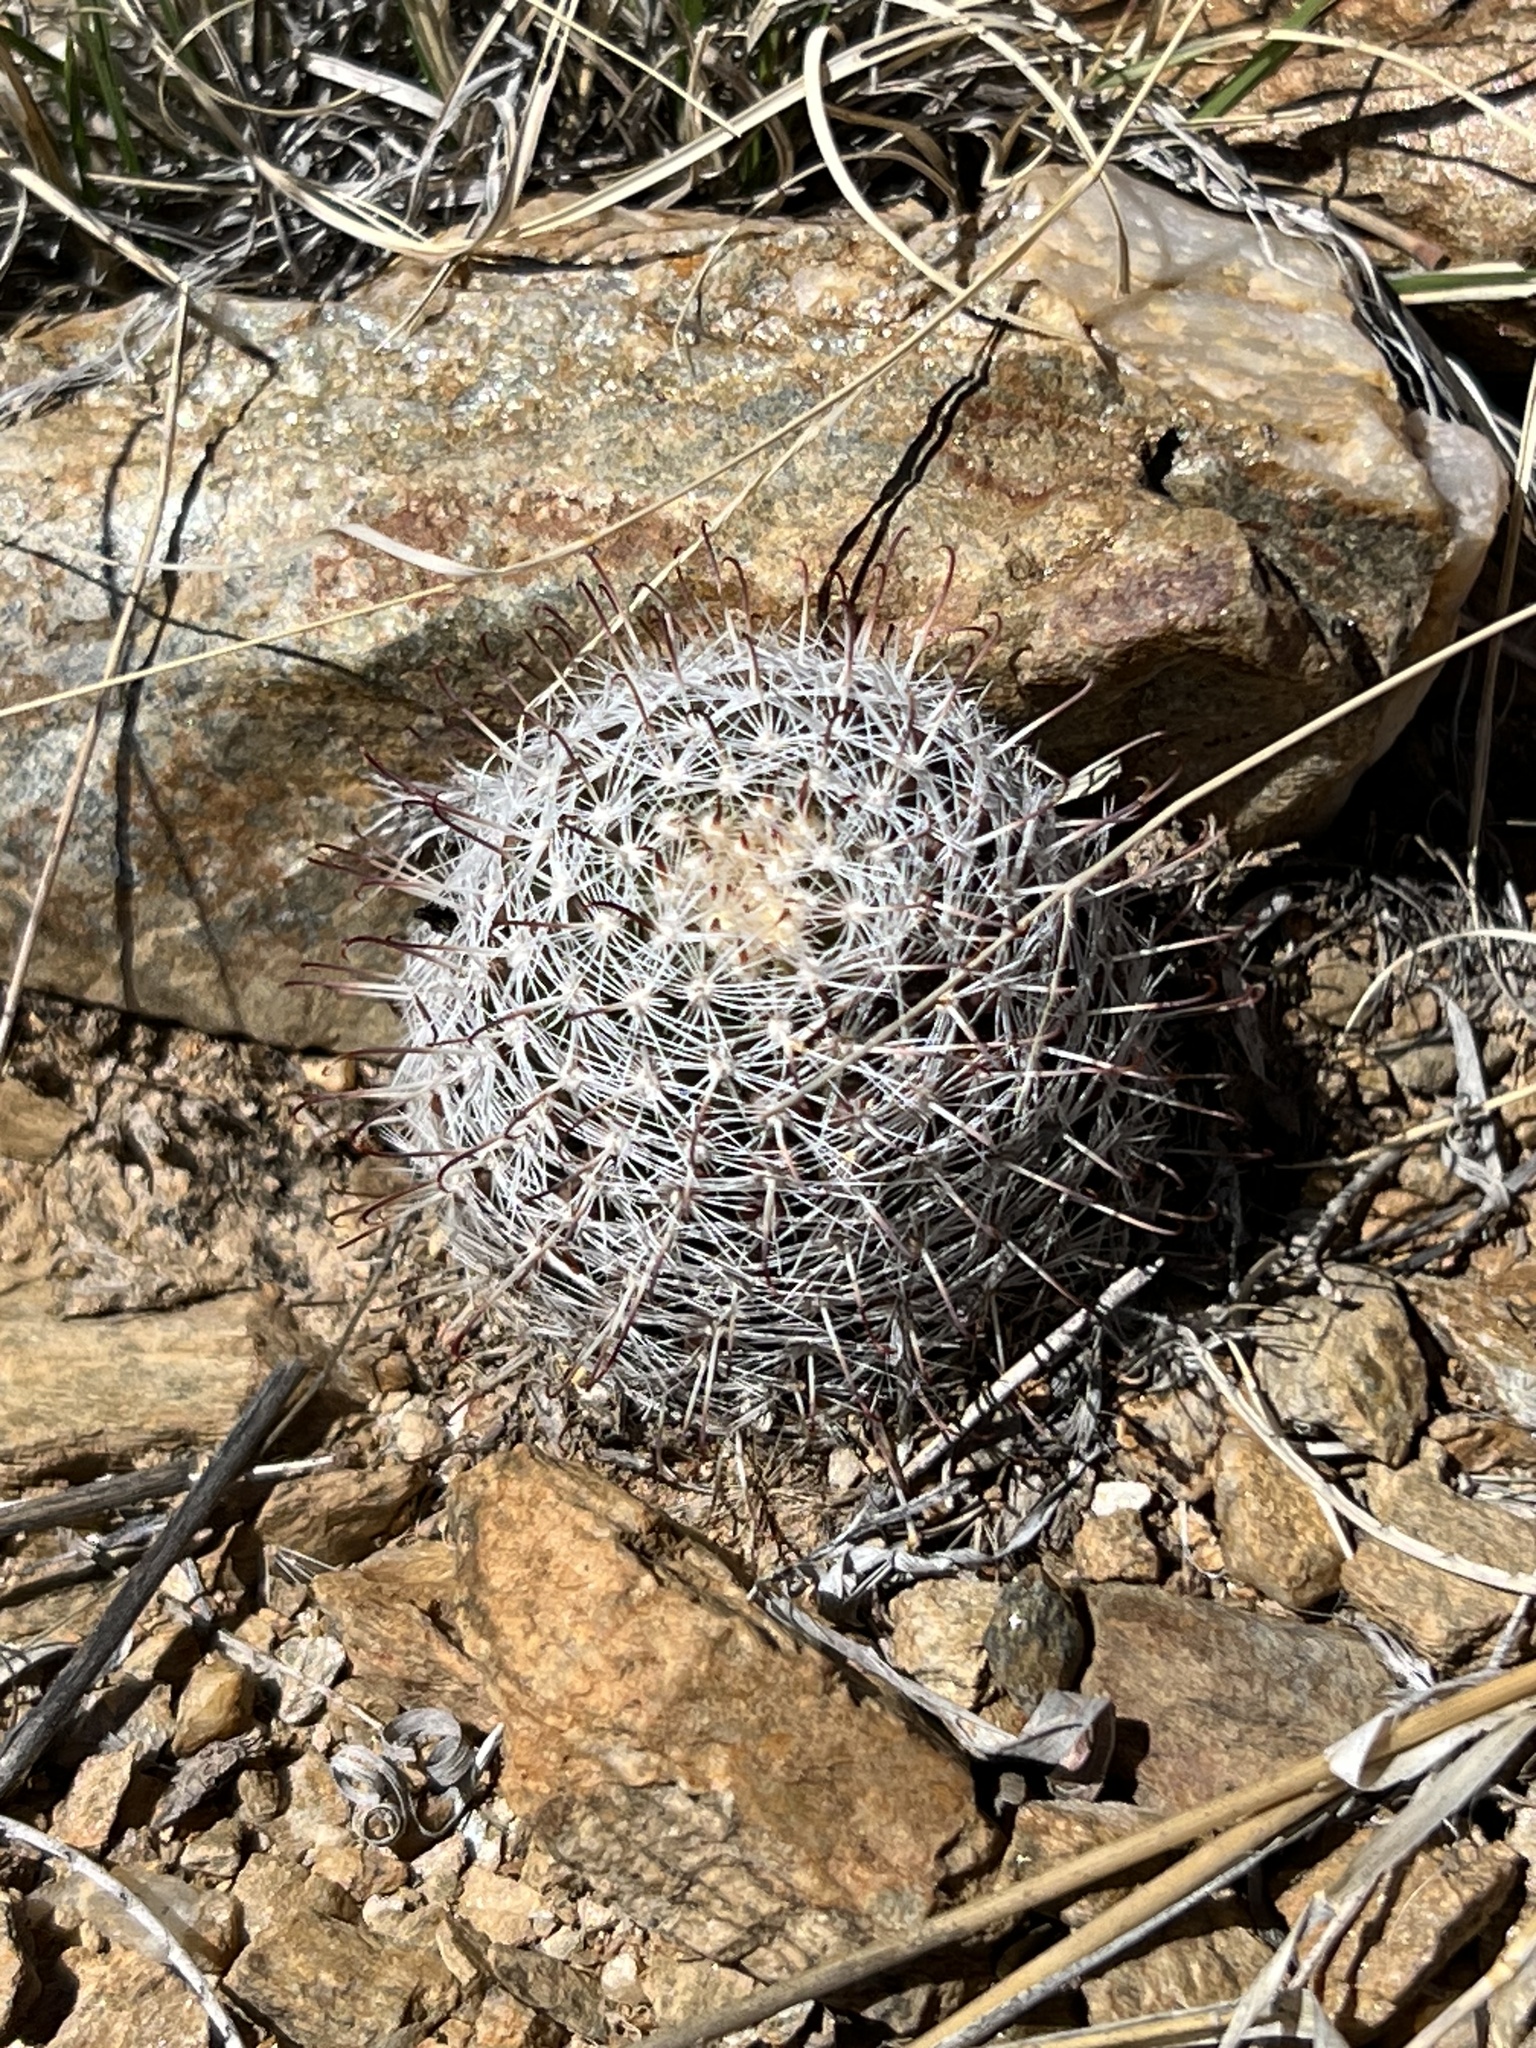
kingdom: Plantae
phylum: Tracheophyta
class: Magnoliopsida
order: Caryophyllales
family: Cactaceae
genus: Cochemiea
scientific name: Cochemiea grahamii
